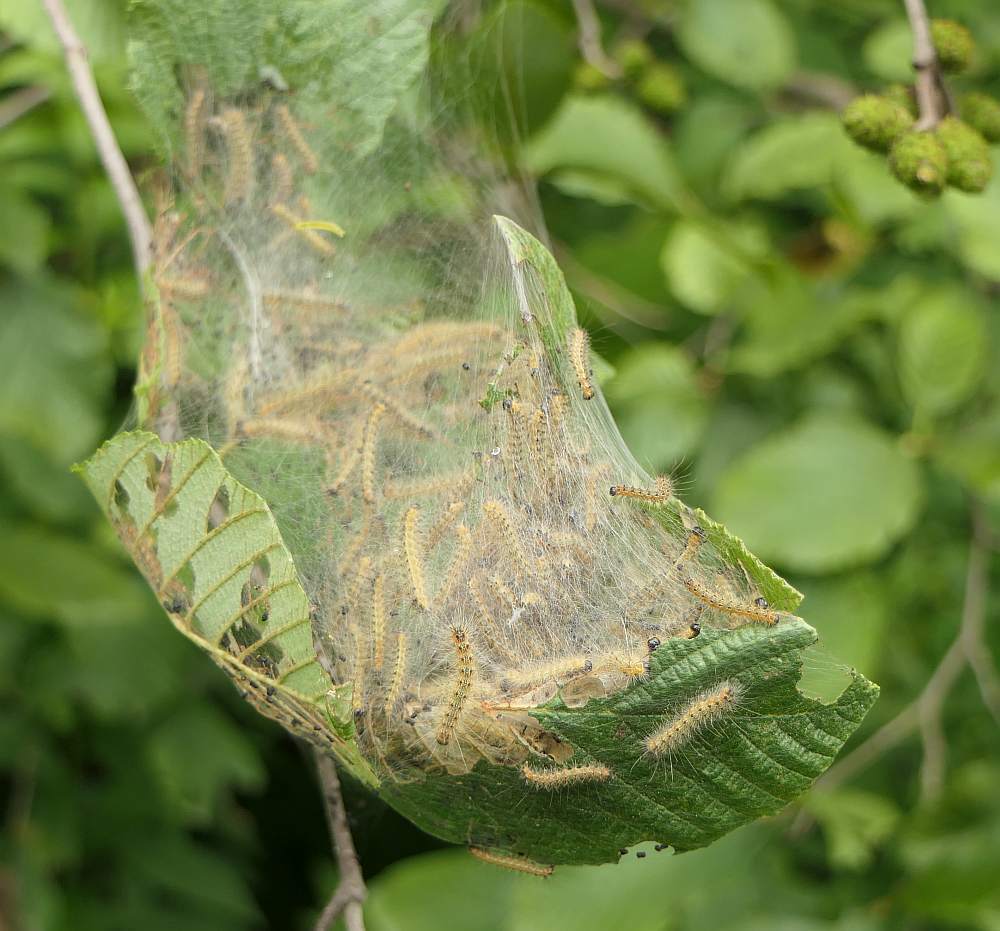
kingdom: Animalia
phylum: Arthropoda
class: Insecta
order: Lepidoptera
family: Erebidae
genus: Hyphantria
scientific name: Hyphantria cunea
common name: American white moth
